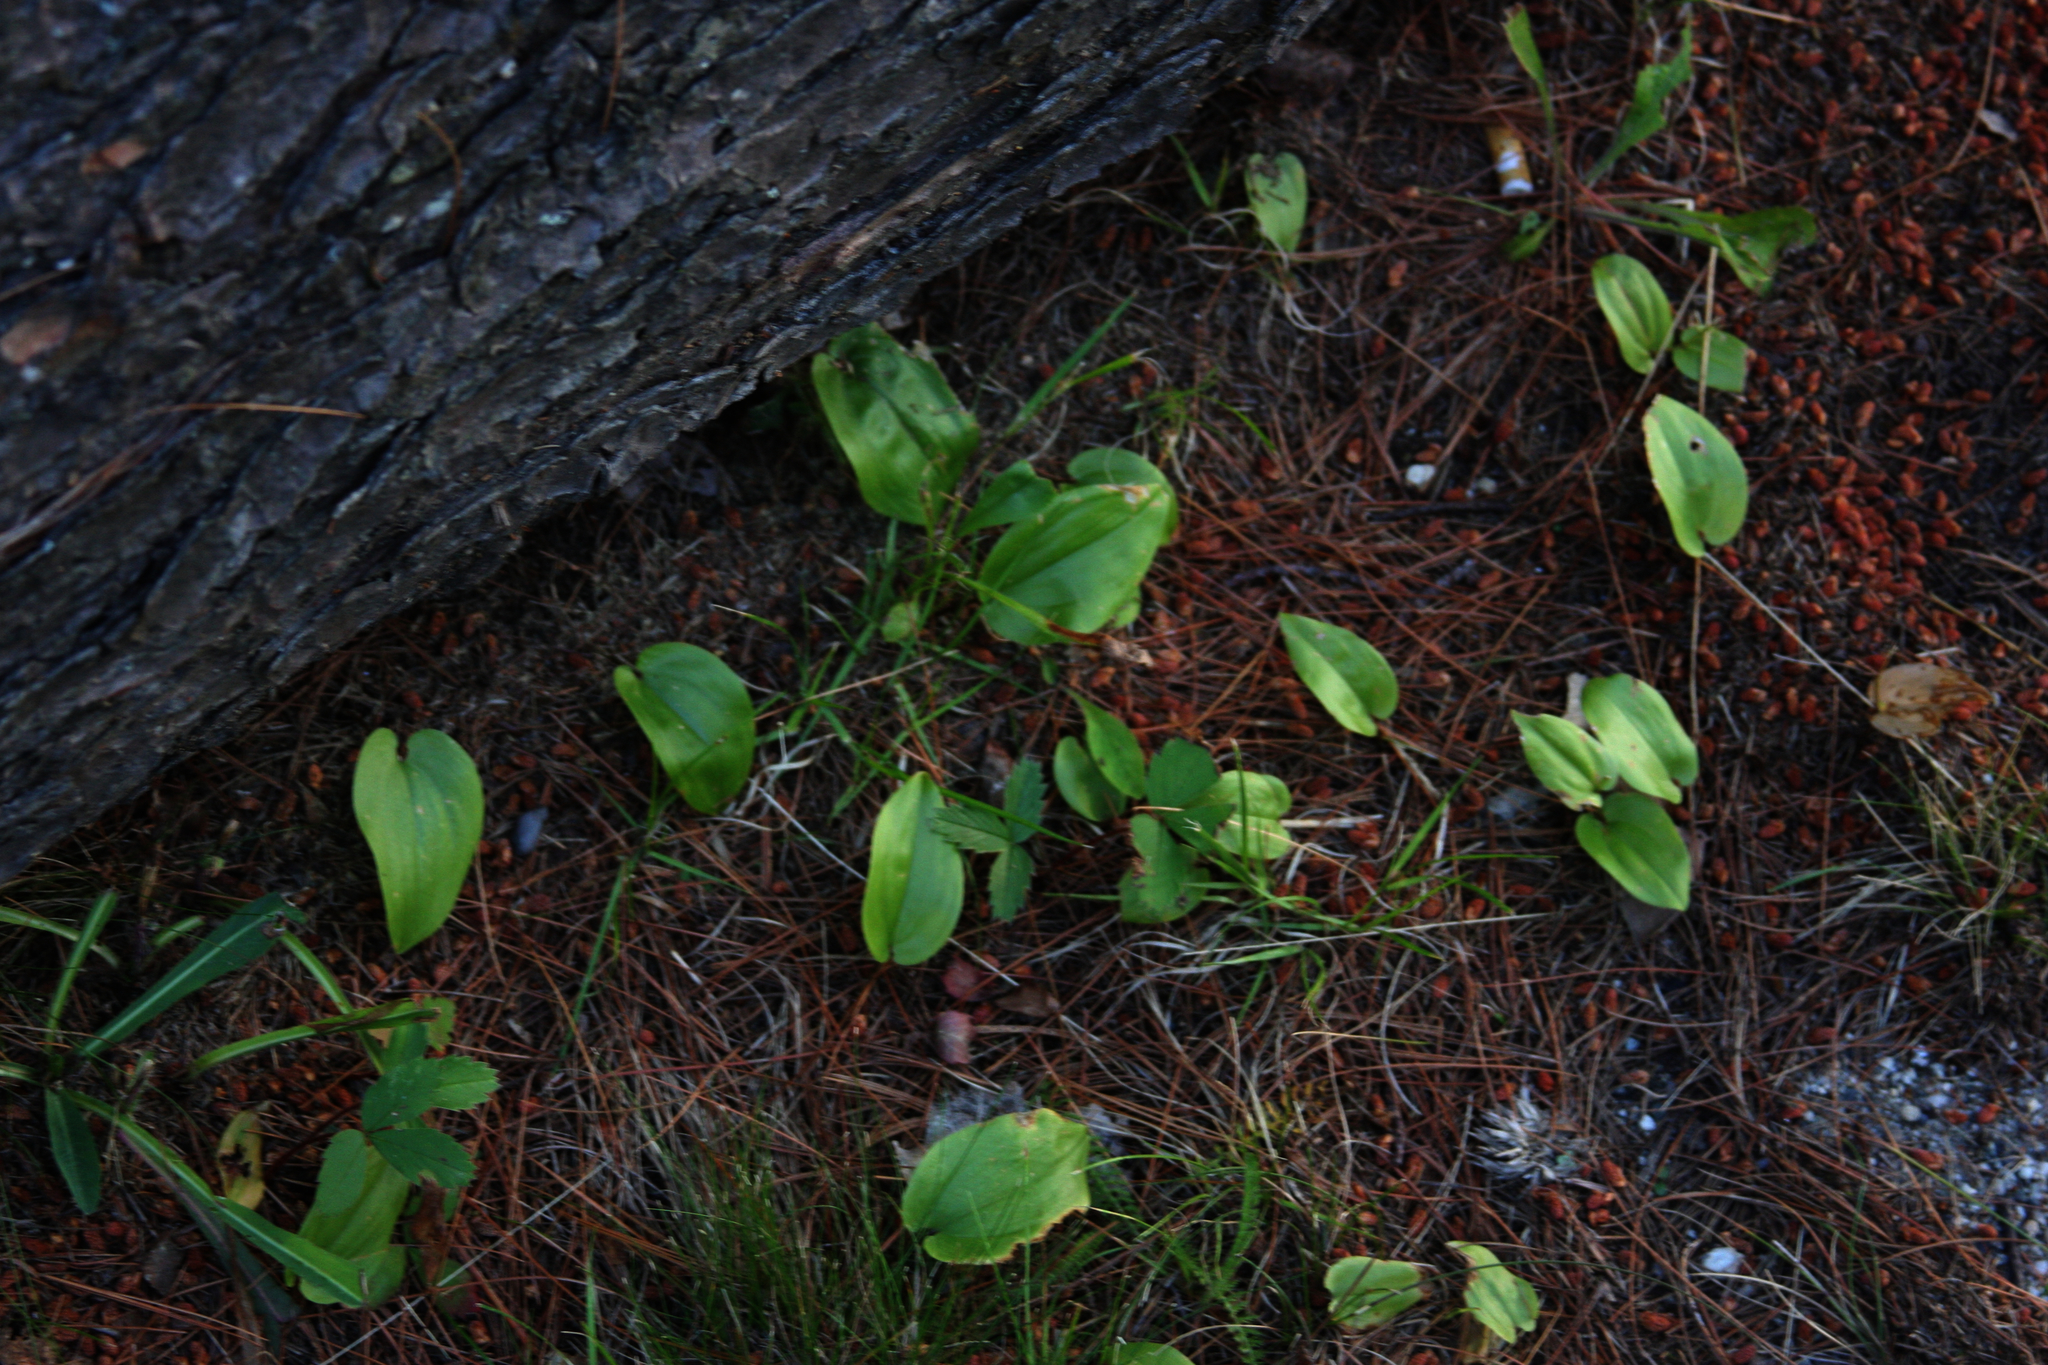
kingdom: Plantae
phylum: Tracheophyta
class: Liliopsida
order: Asparagales
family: Asparagaceae
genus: Maianthemum
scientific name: Maianthemum canadense
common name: False lily-of-the-valley
